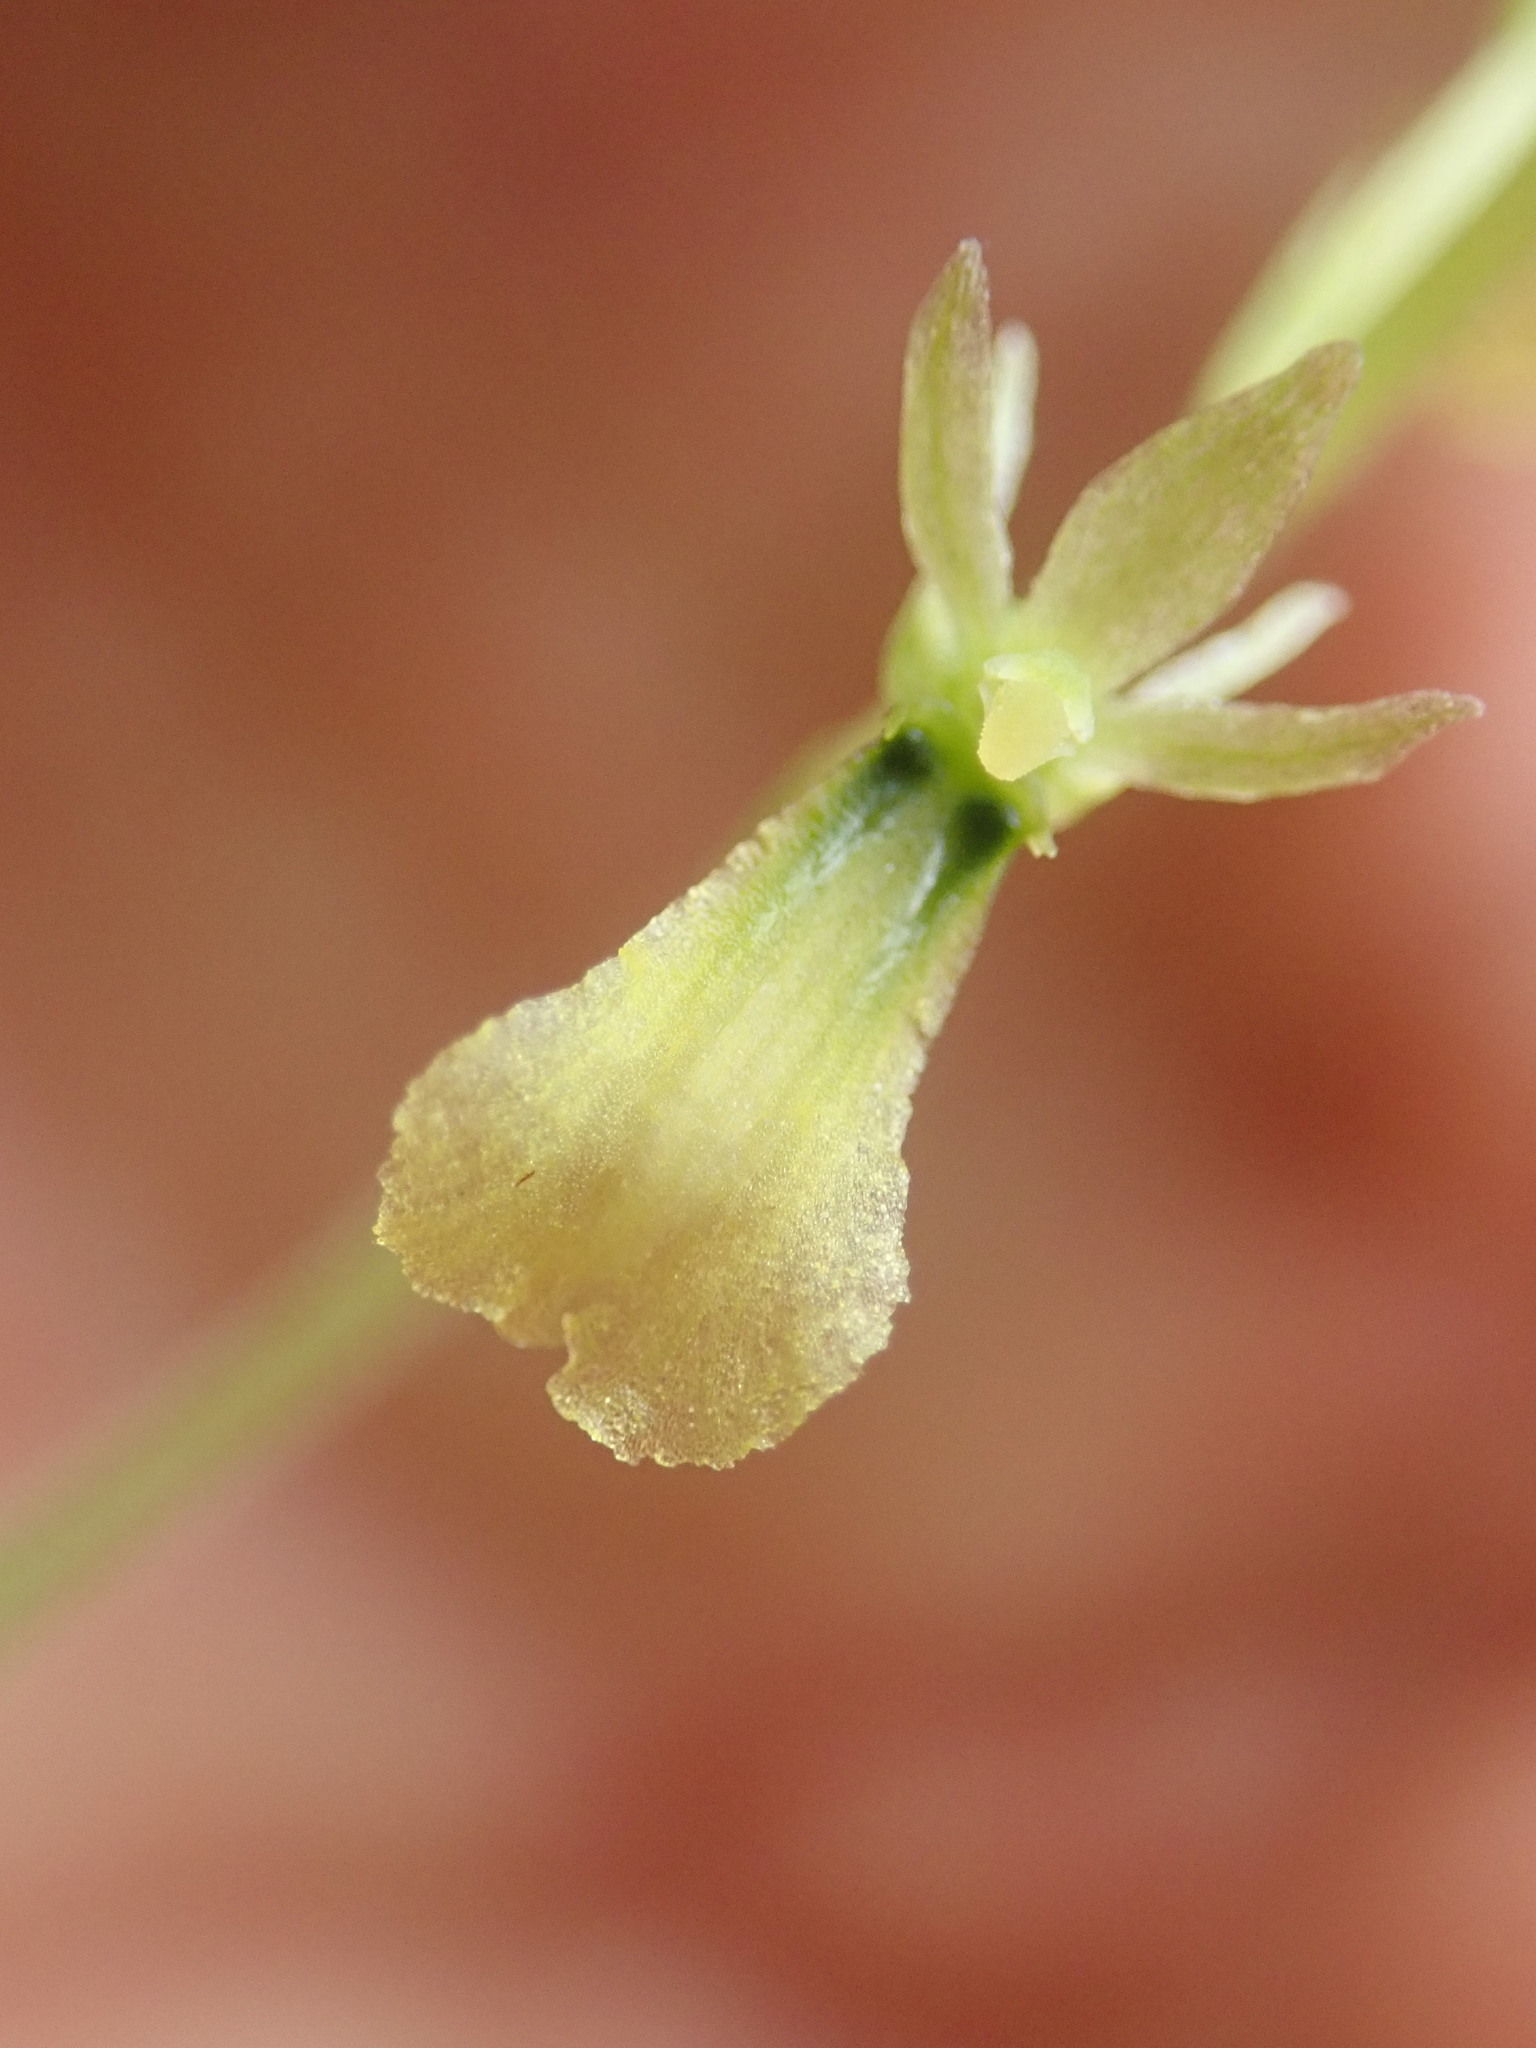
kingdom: Plantae
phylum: Tracheophyta
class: Liliopsida
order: Asparagales
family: Orchidaceae
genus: Neottia
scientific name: Neottia banksiana
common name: Northwestern twayblade
